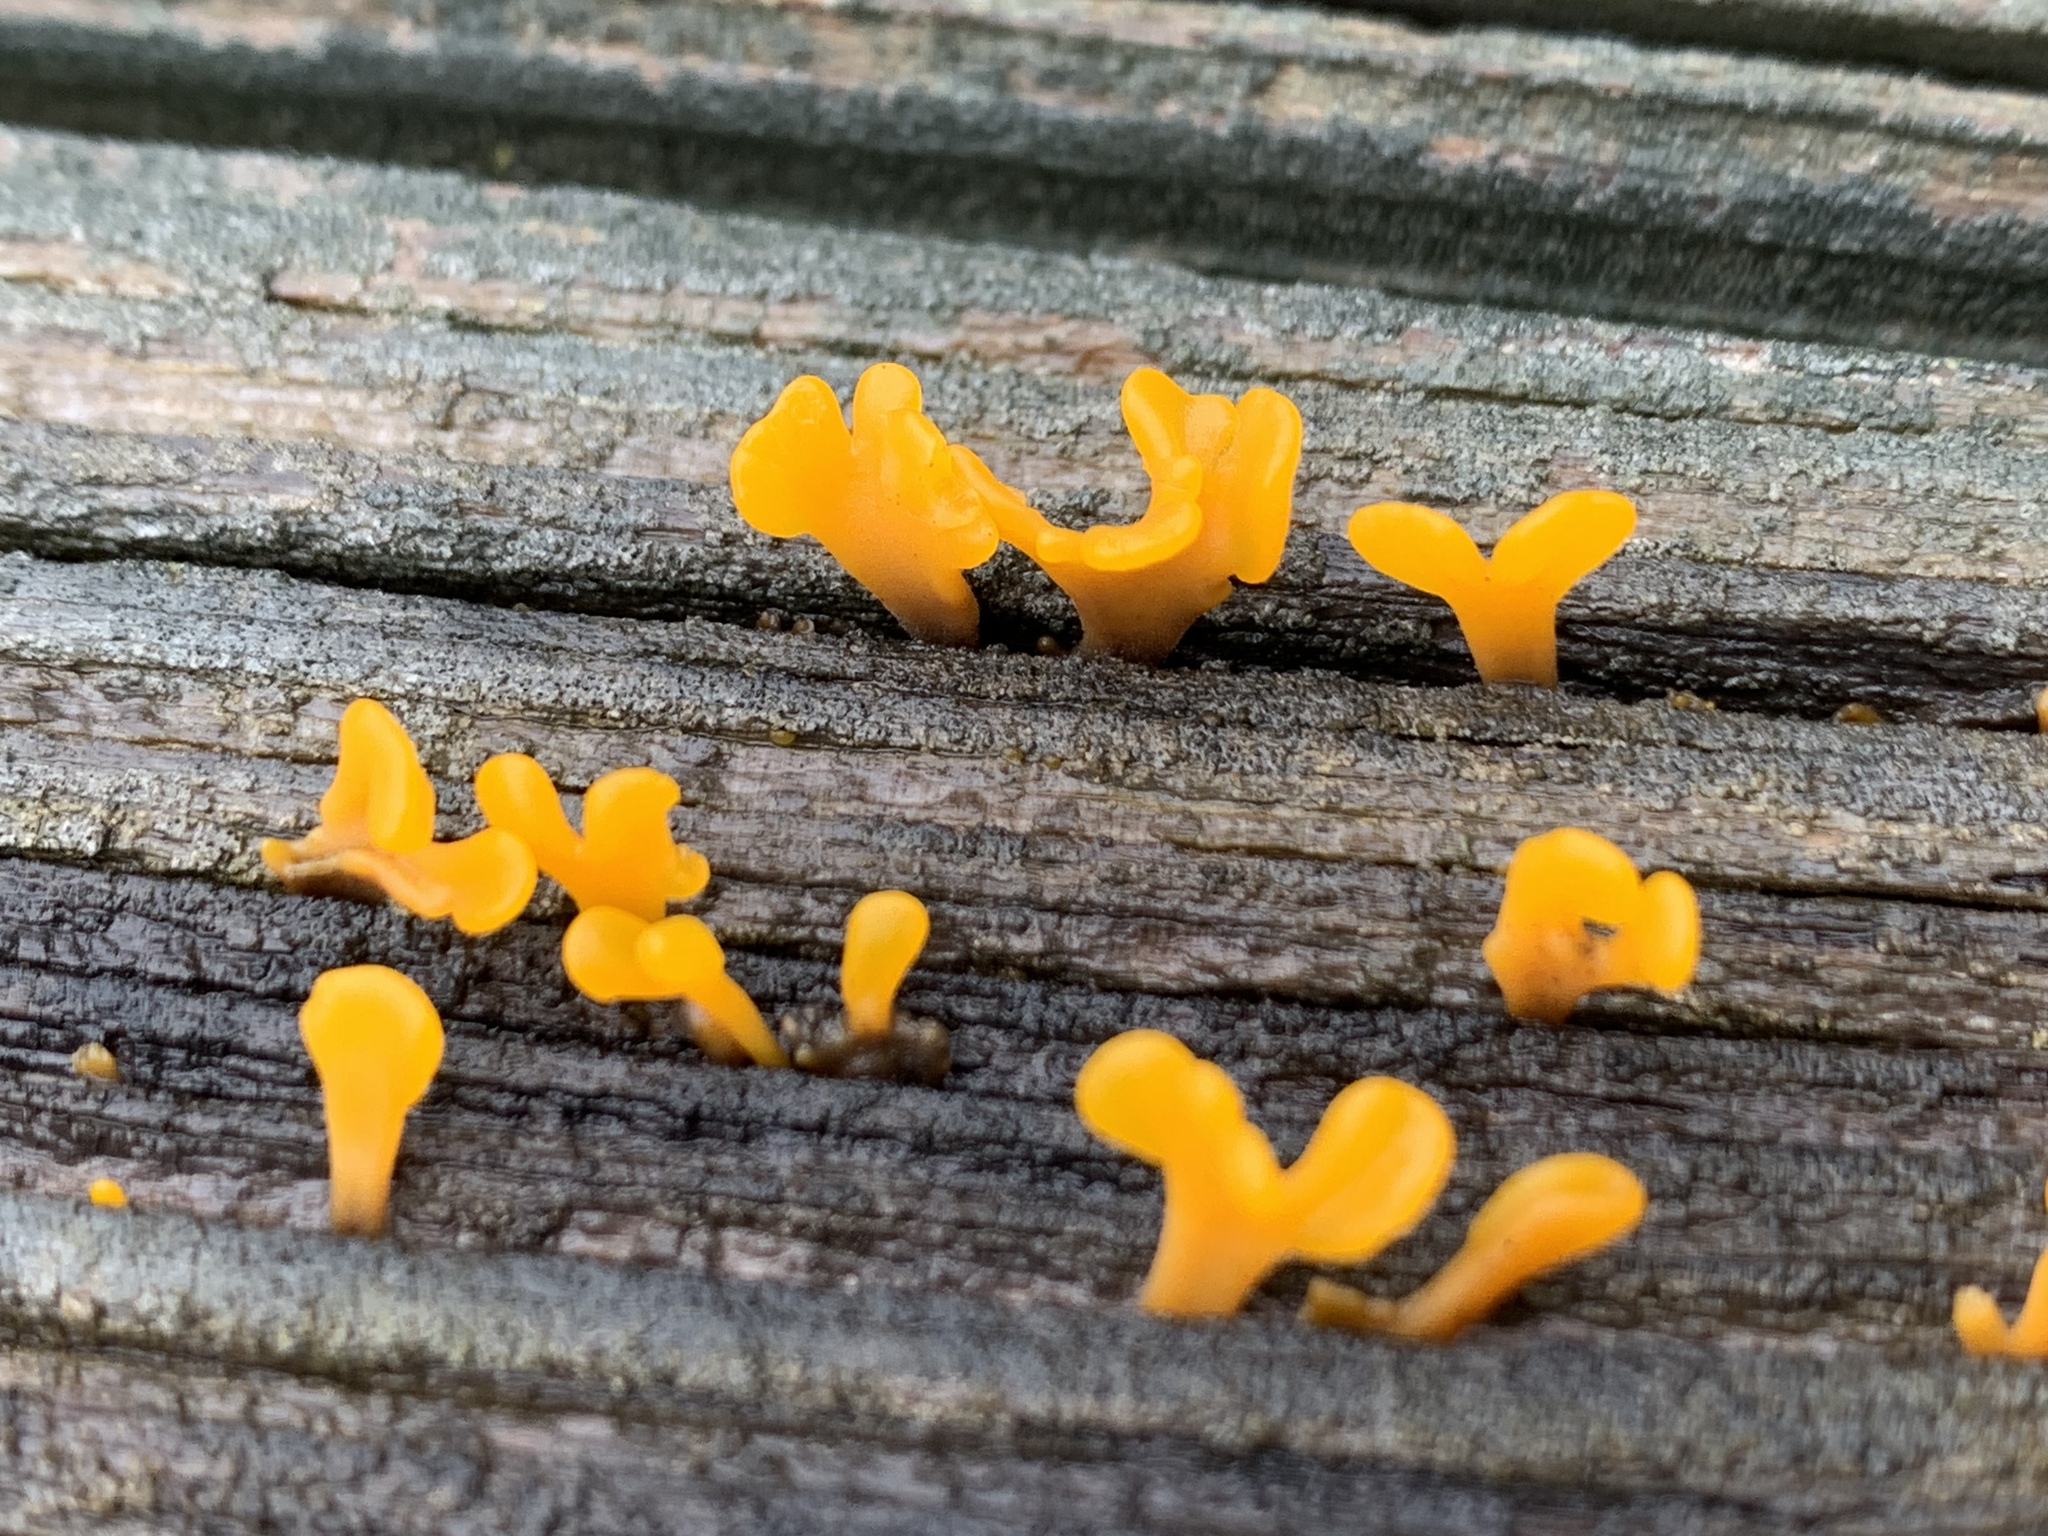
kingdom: Fungi
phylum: Basidiomycota
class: Dacrymycetes
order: Dacrymycetales
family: Dacrymycetaceae
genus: Dacrymyces
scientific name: Dacrymyces spathularius
